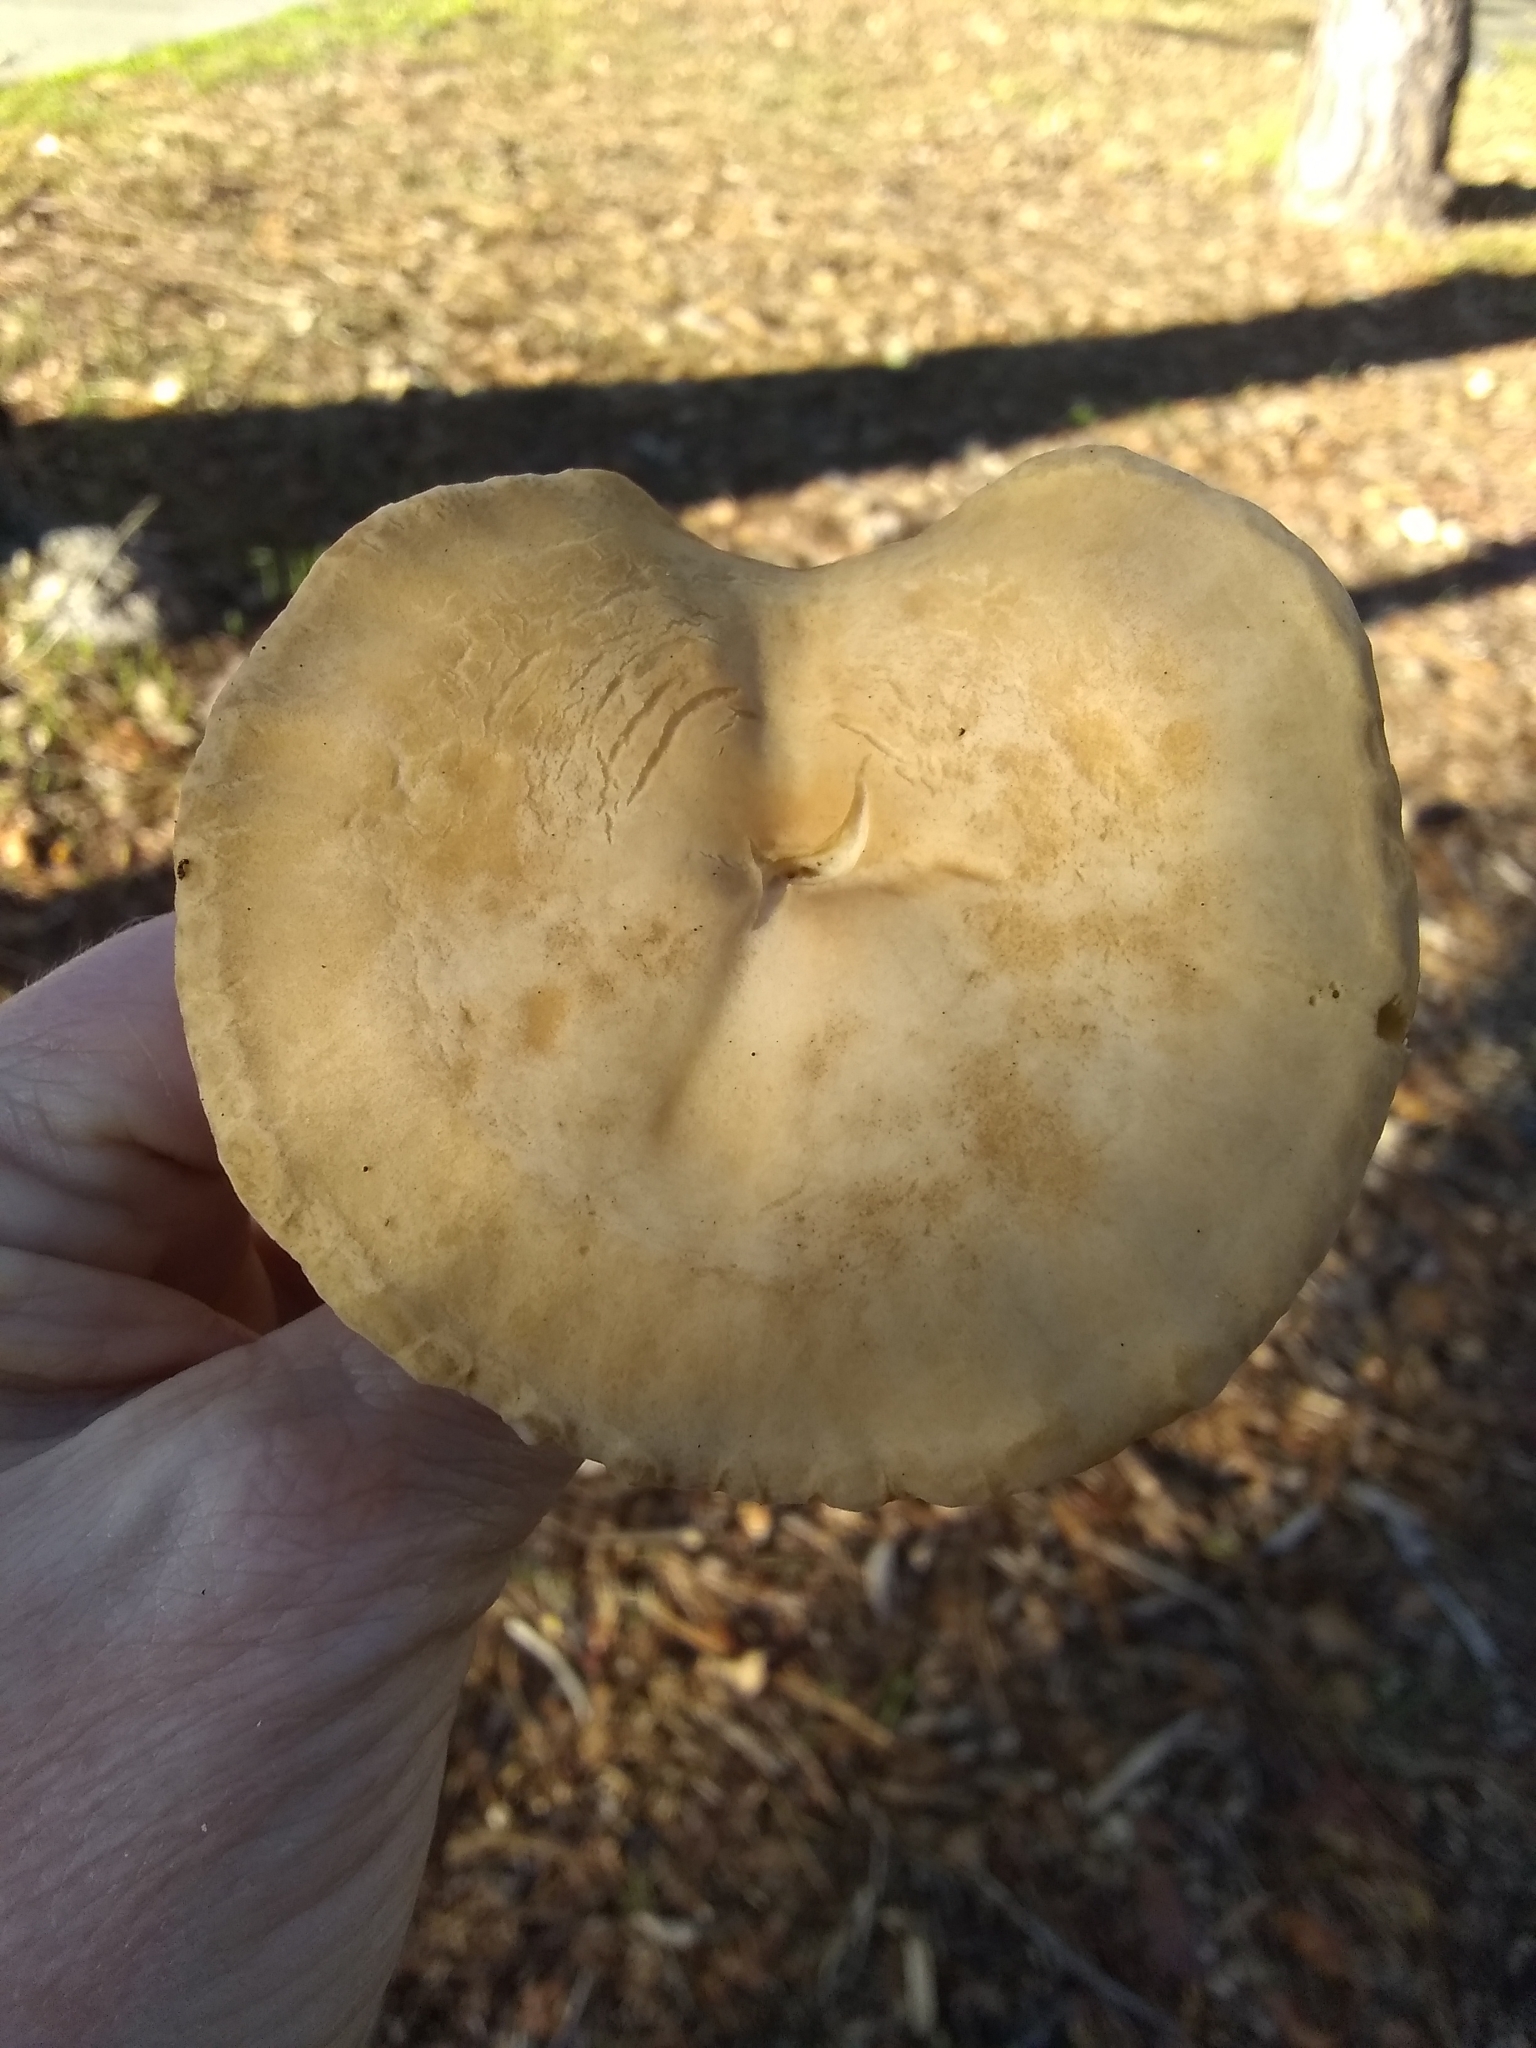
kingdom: Fungi
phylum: Basidiomycota
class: Agaricomycetes
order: Agaricales
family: Strophariaceae
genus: Agrocybe
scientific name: Agrocybe putaminum
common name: Mulch fieldcap
